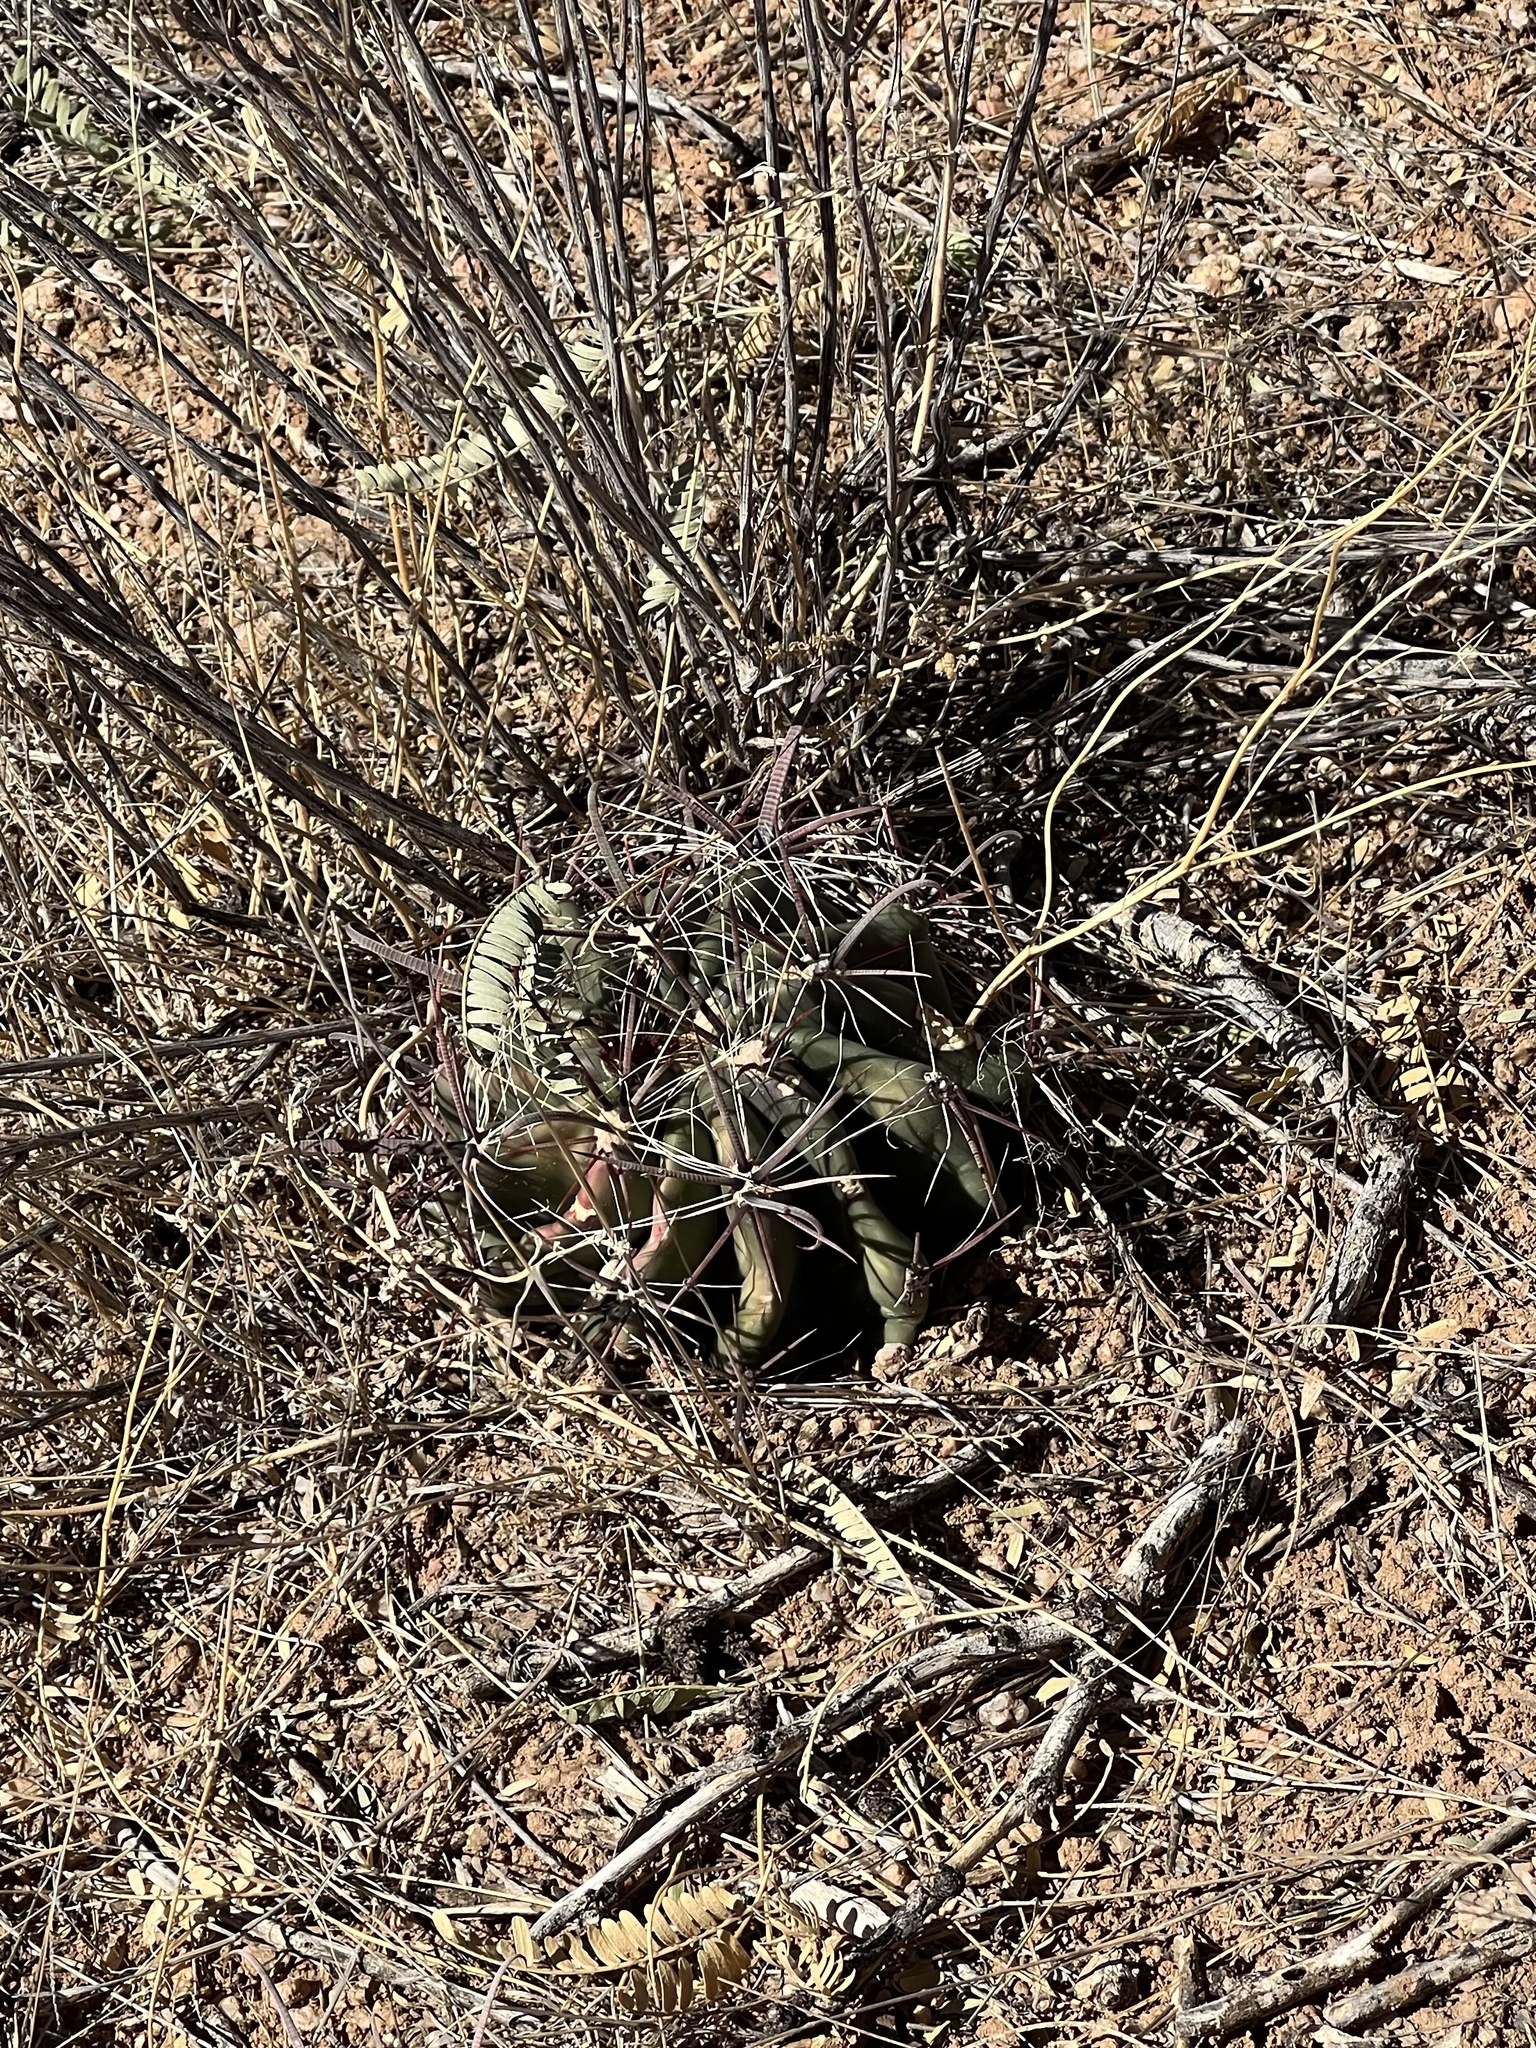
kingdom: Plantae
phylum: Tracheophyta
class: Magnoliopsida
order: Caryophyllales
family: Cactaceae
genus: Ferocactus
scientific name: Ferocactus wislizeni
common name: Candy barrel cactus
